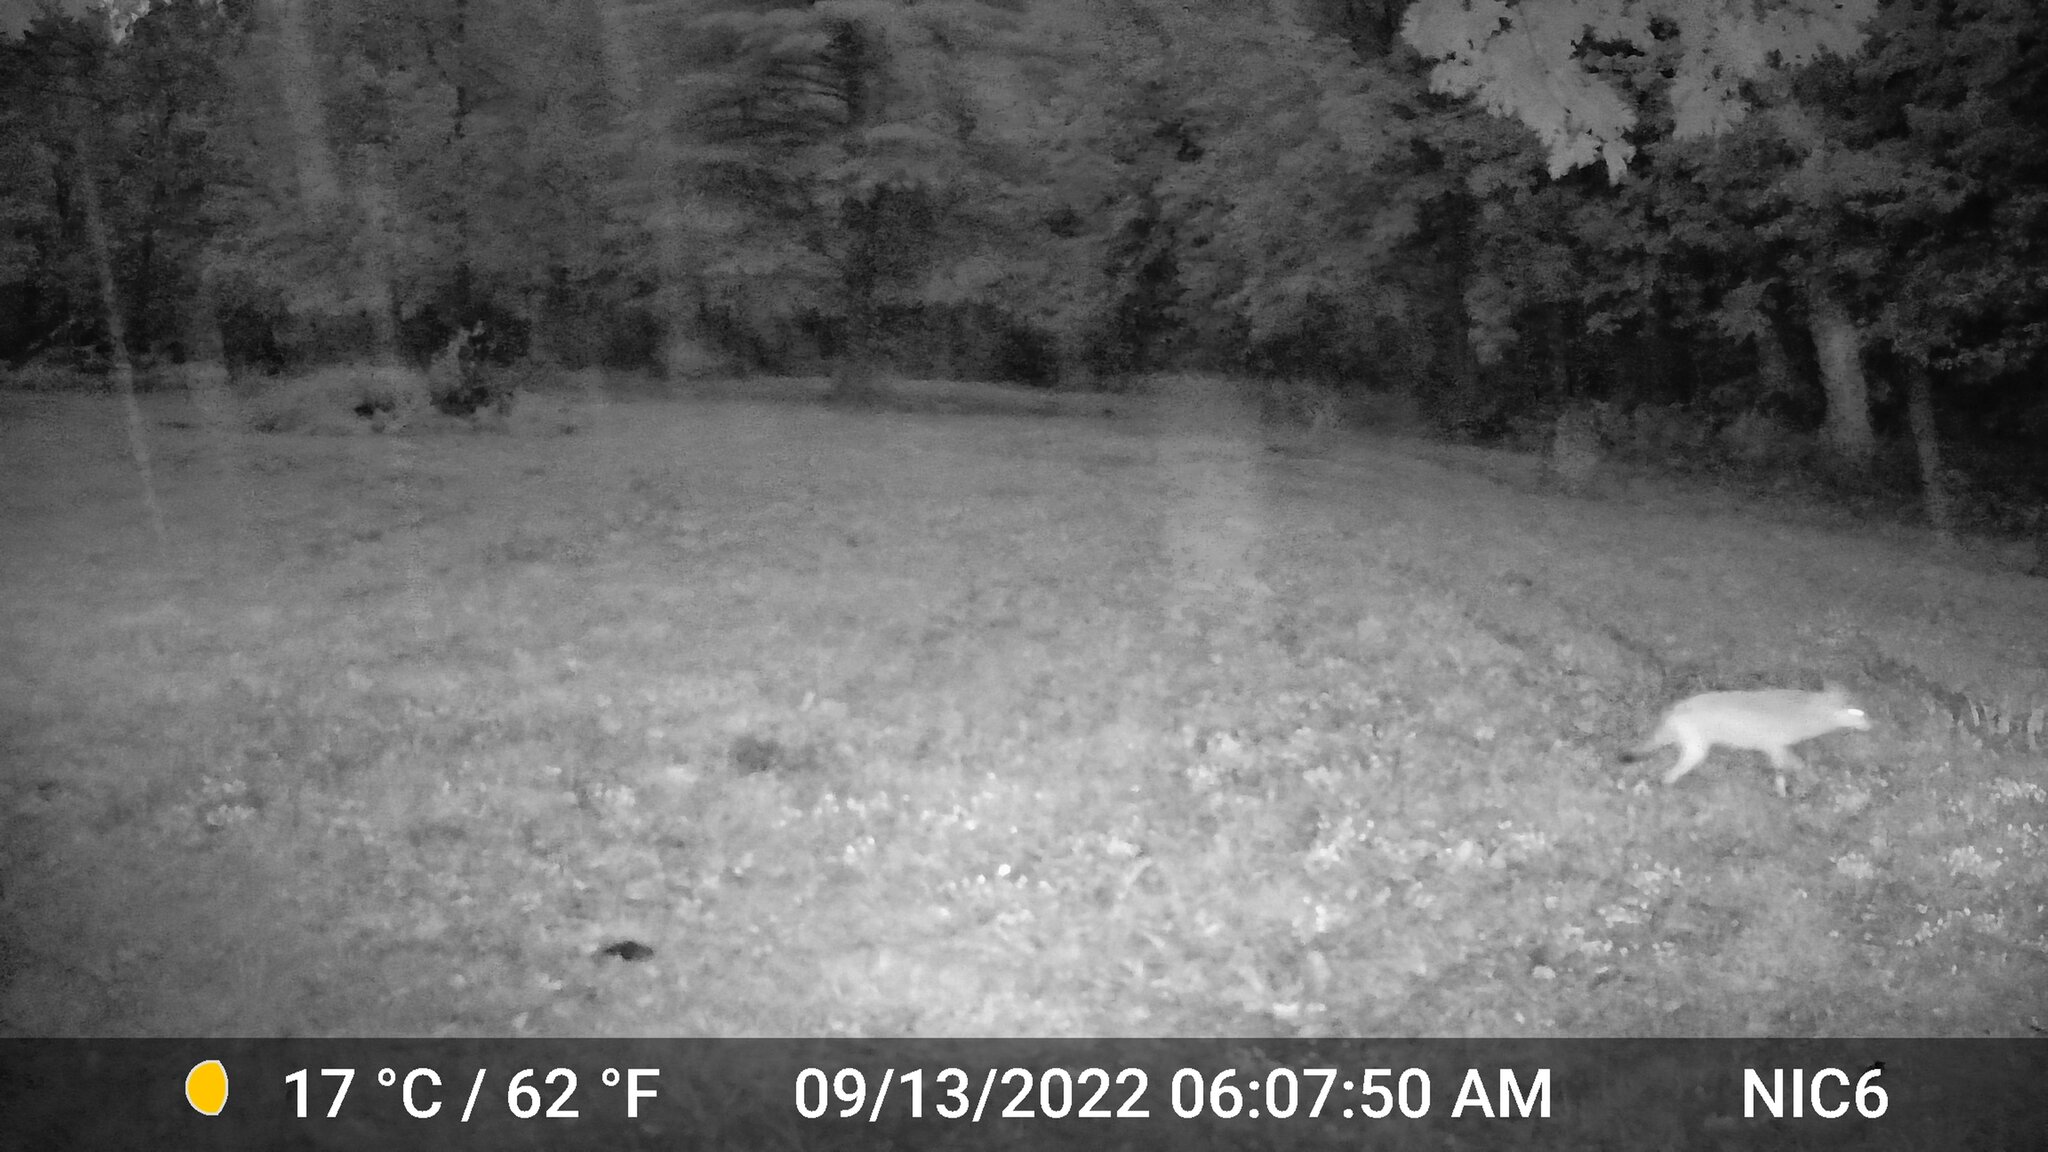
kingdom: Animalia
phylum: Chordata
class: Mammalia
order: Carnivora
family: Canidae
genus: Canis
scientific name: Canis latrans
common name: Coyote
